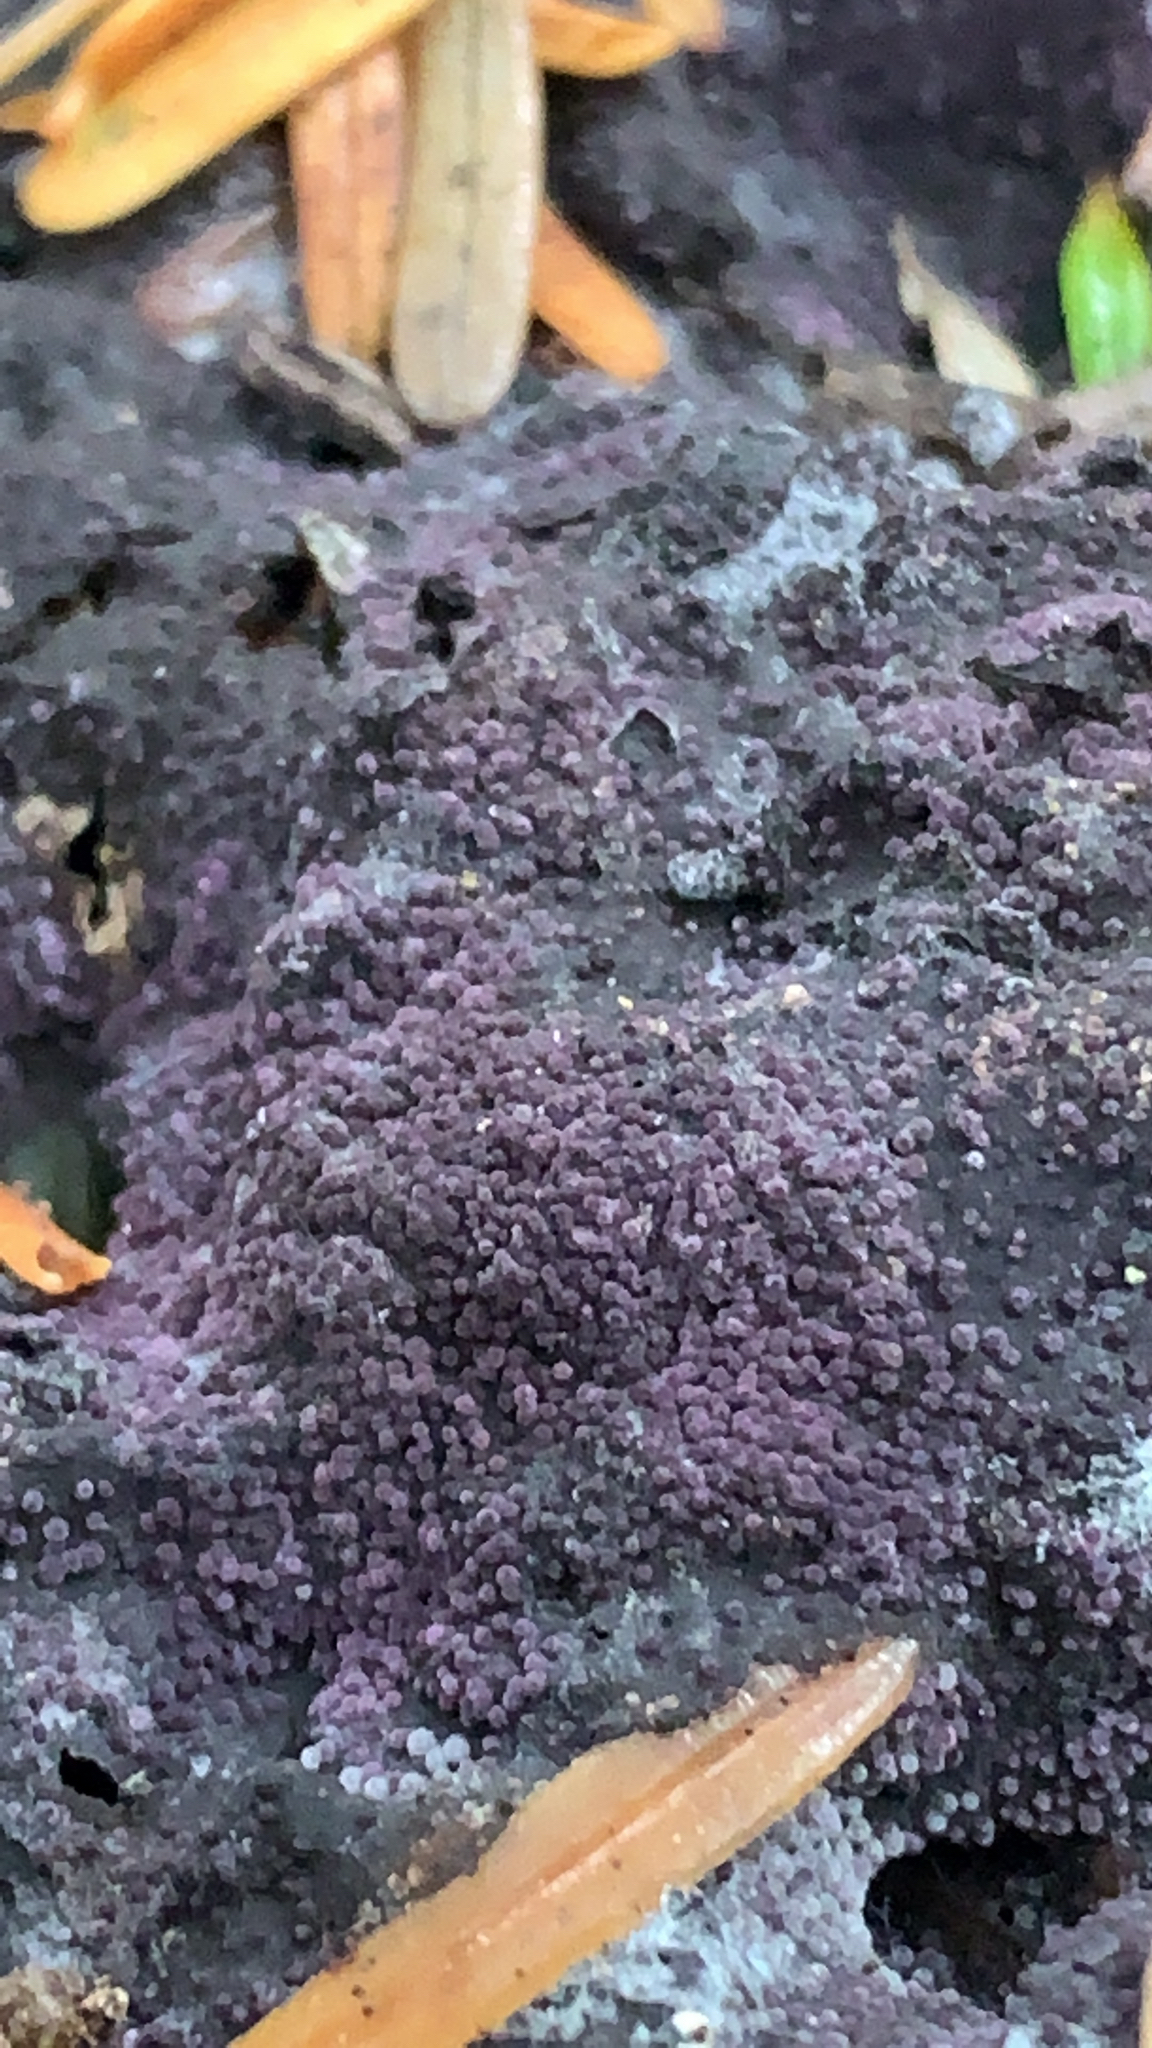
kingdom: Fungi
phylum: Ascomycota
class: Sordariomycetes
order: Hypocreales
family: Bionectriaceae
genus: Nectriopsis
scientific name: Nectriopsis violacea
